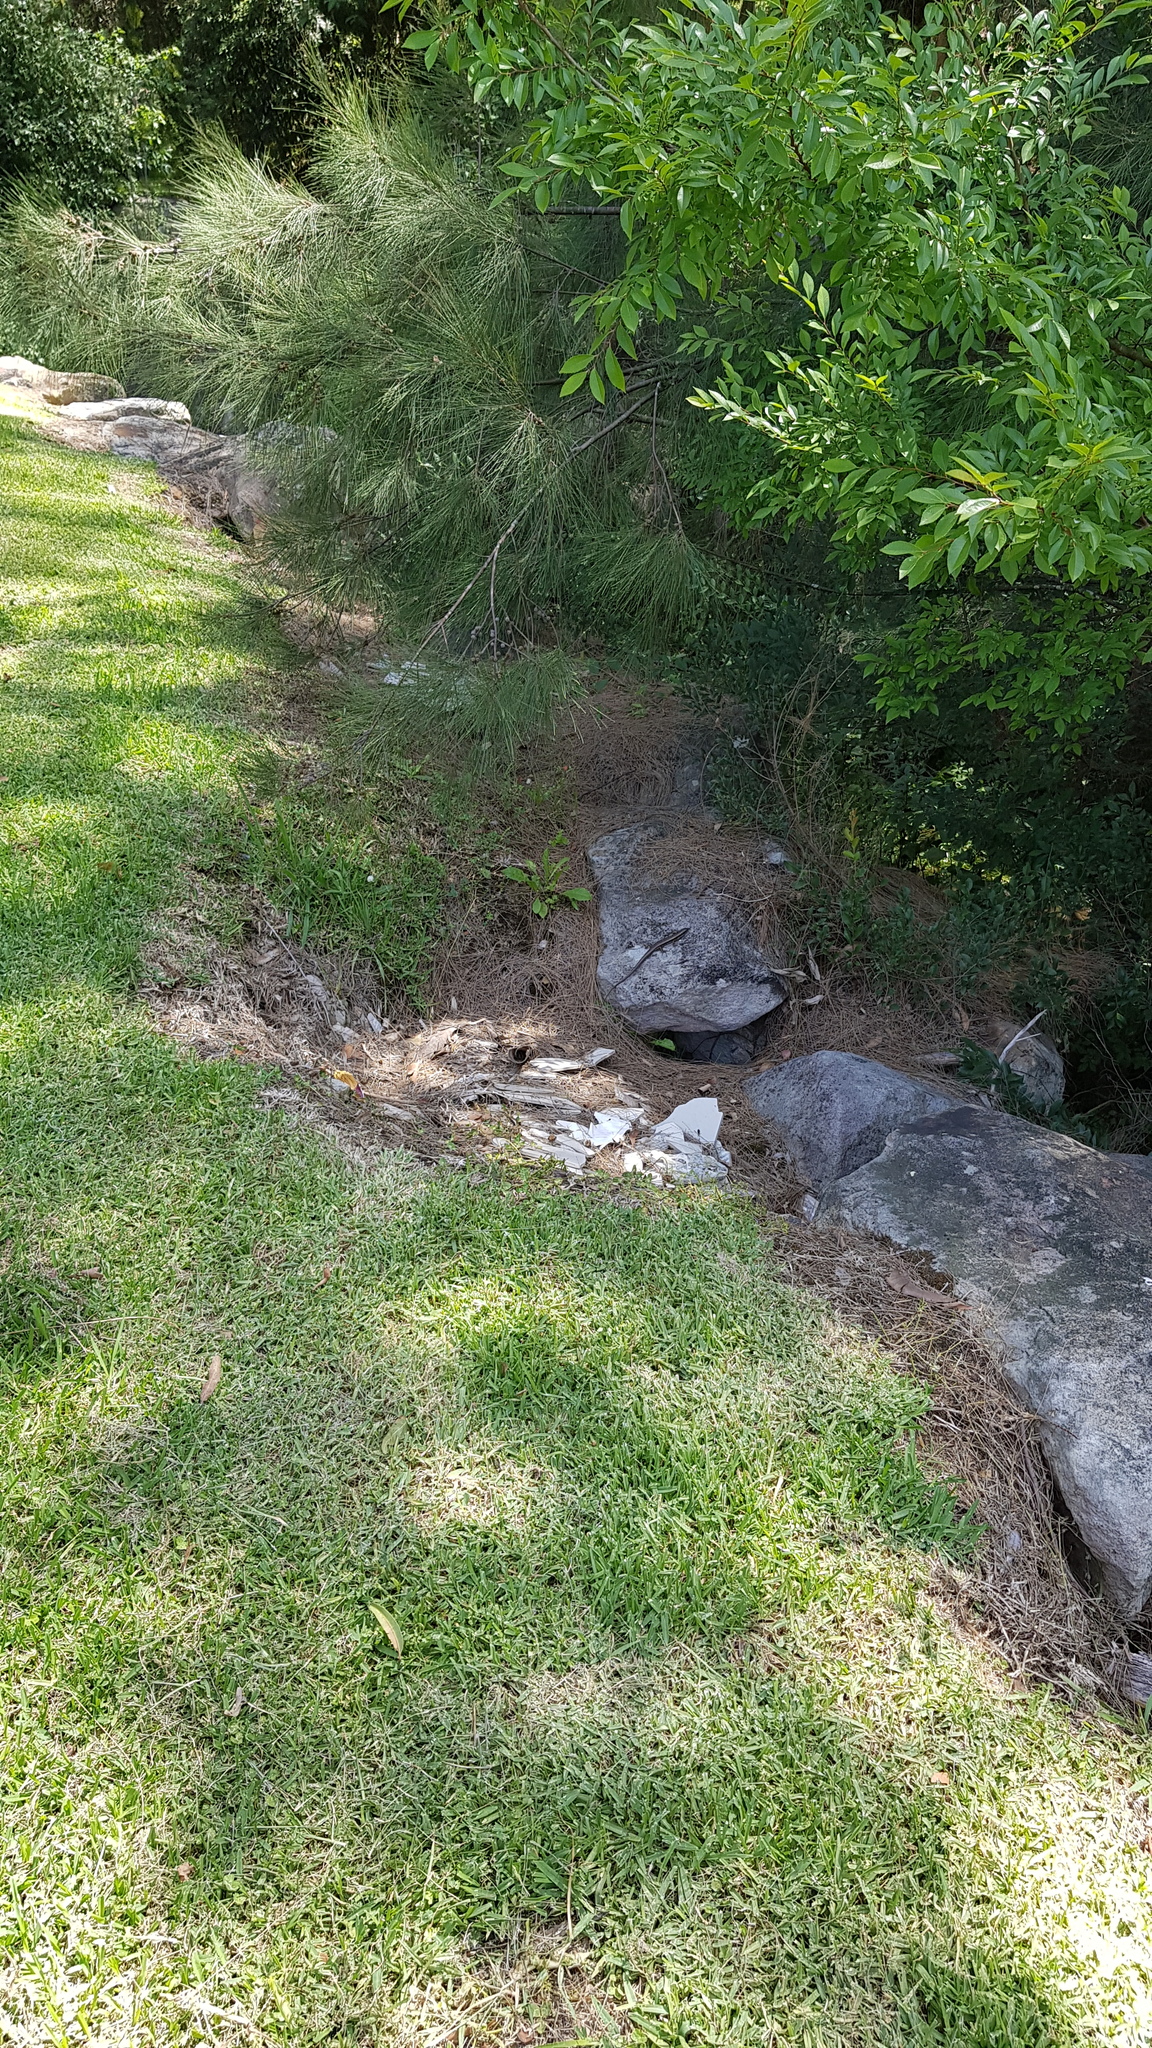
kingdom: Animalia
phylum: Chordata
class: Squamata
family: Scincidae
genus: Eulamprus
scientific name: Eulamprus quoyii
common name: Eastern water skink
